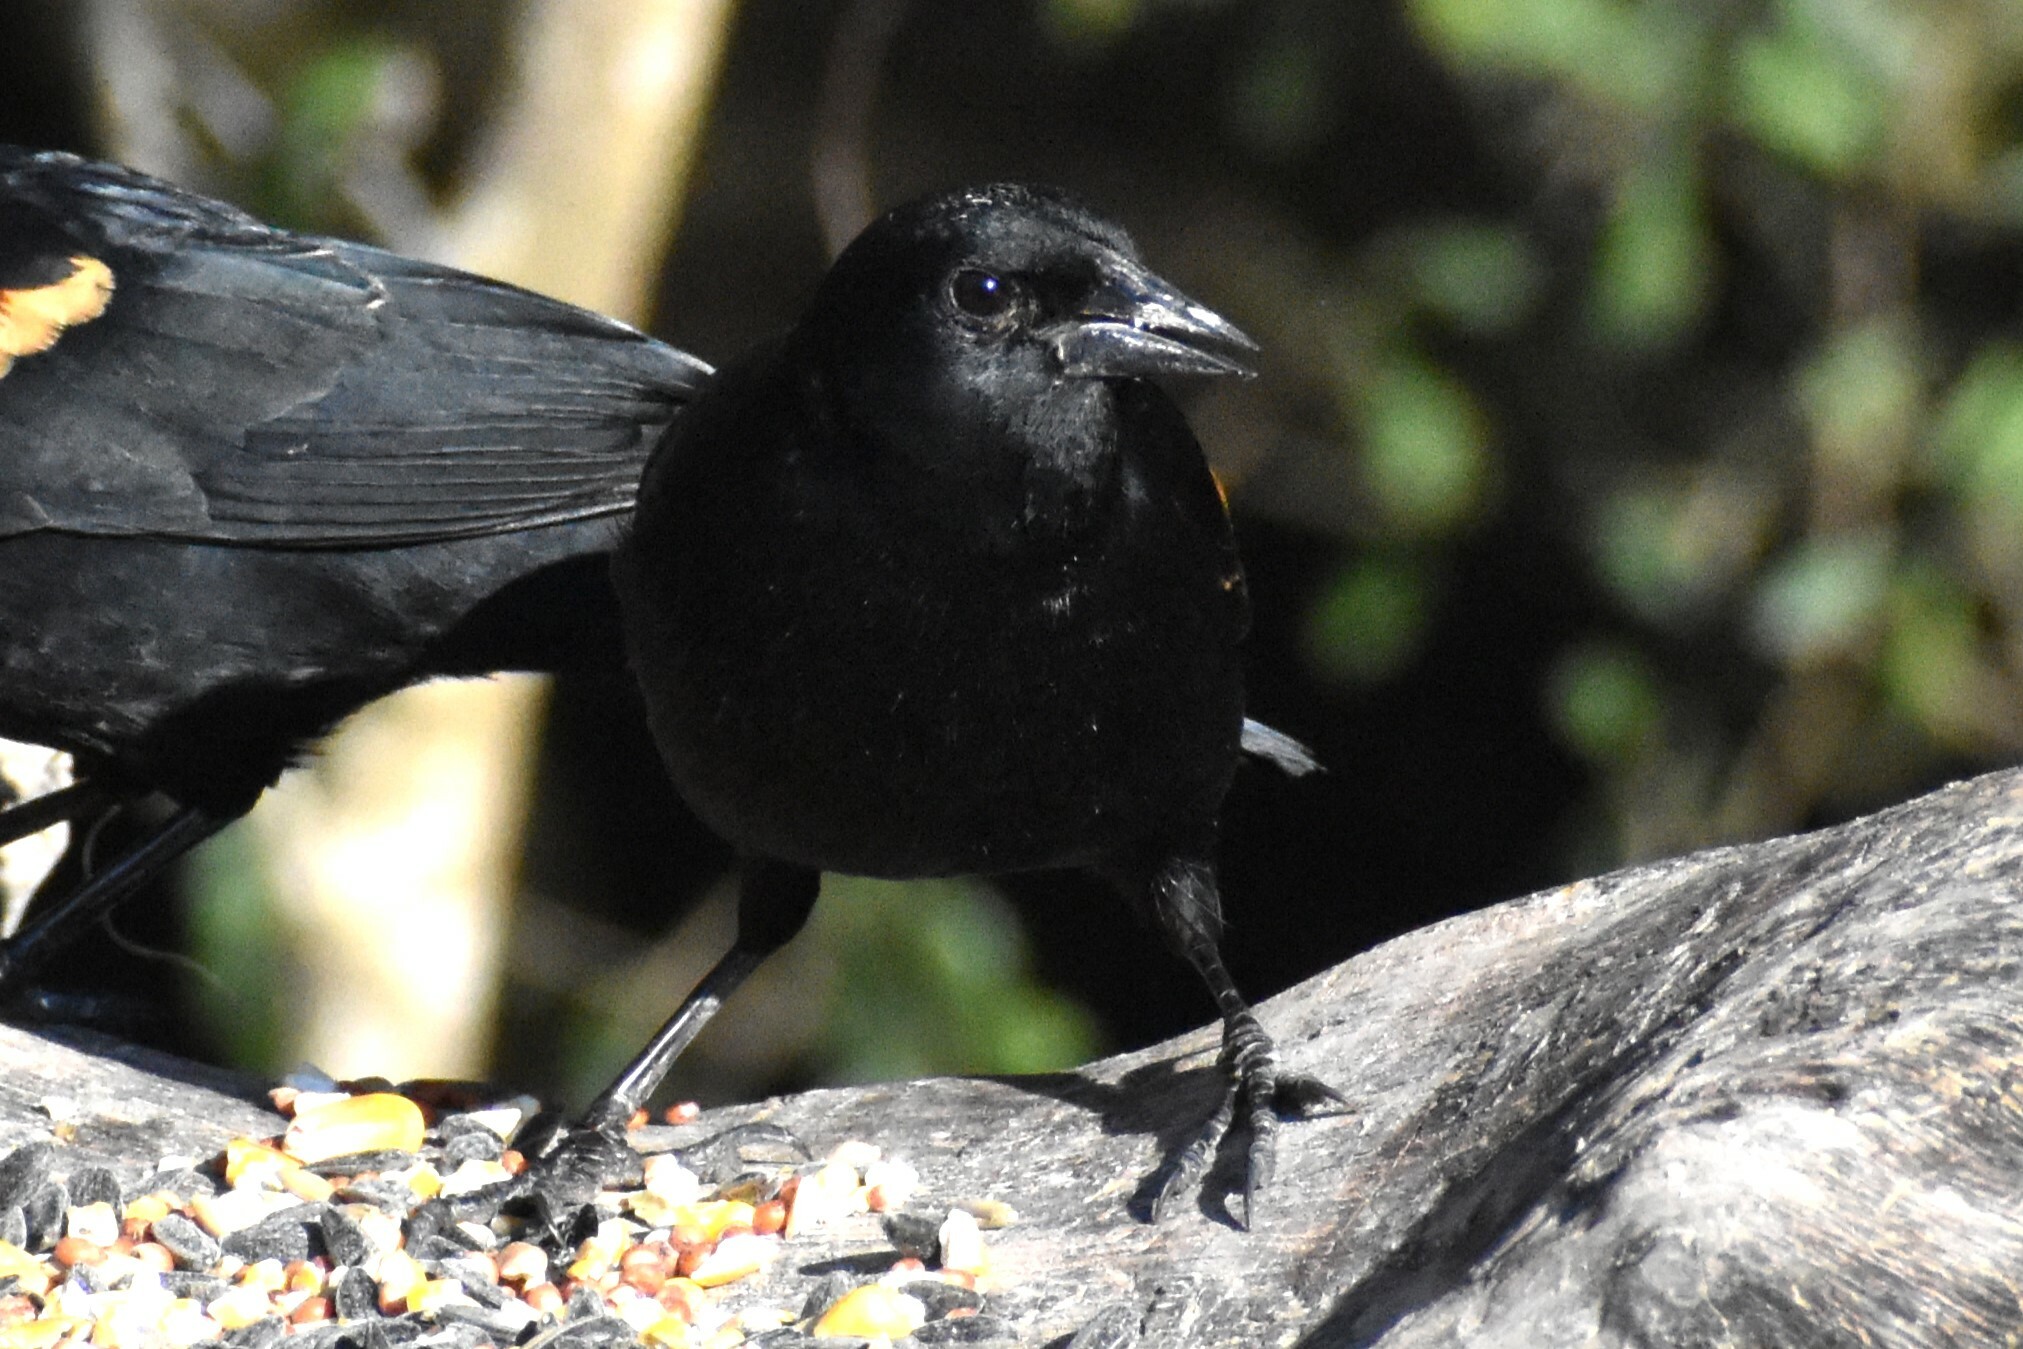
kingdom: Animalia
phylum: Chordata
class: Aves
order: Passeriformes
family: Icteridae
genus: Agelaius
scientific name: Agelaius phoeniceus
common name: Red-winged blackbird
